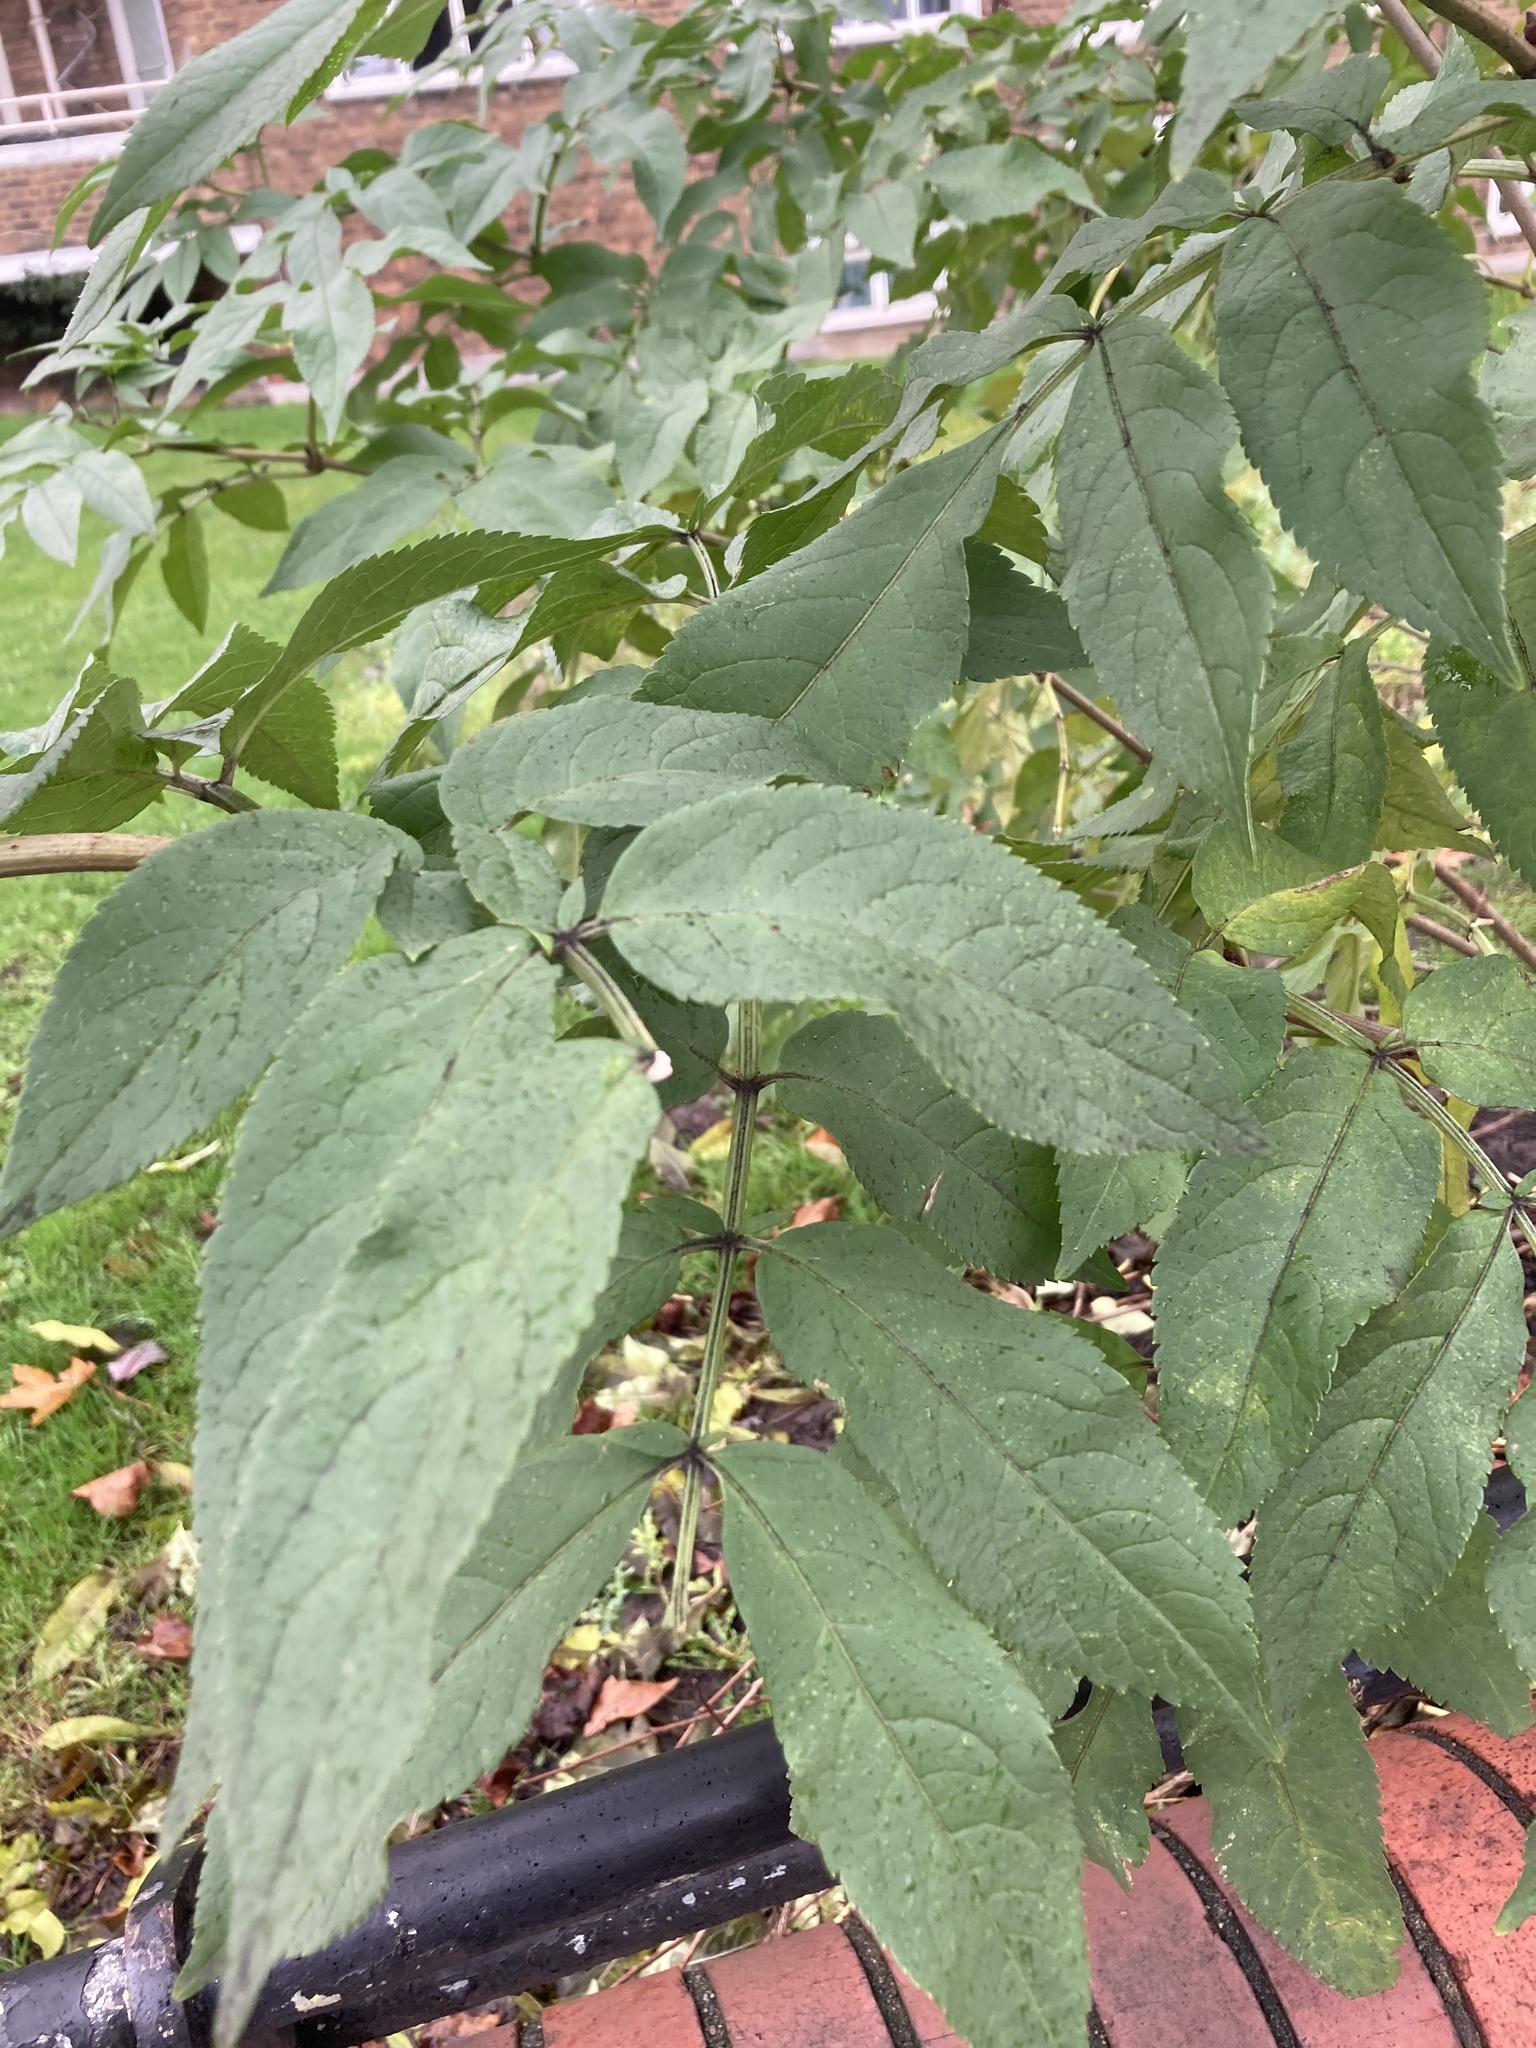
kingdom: Plantae
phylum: Tracheophyta
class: Magnoliopsida
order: Dipsacales
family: Viburnaceae
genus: Sambucus
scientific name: Sambucus nigra
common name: Elder
